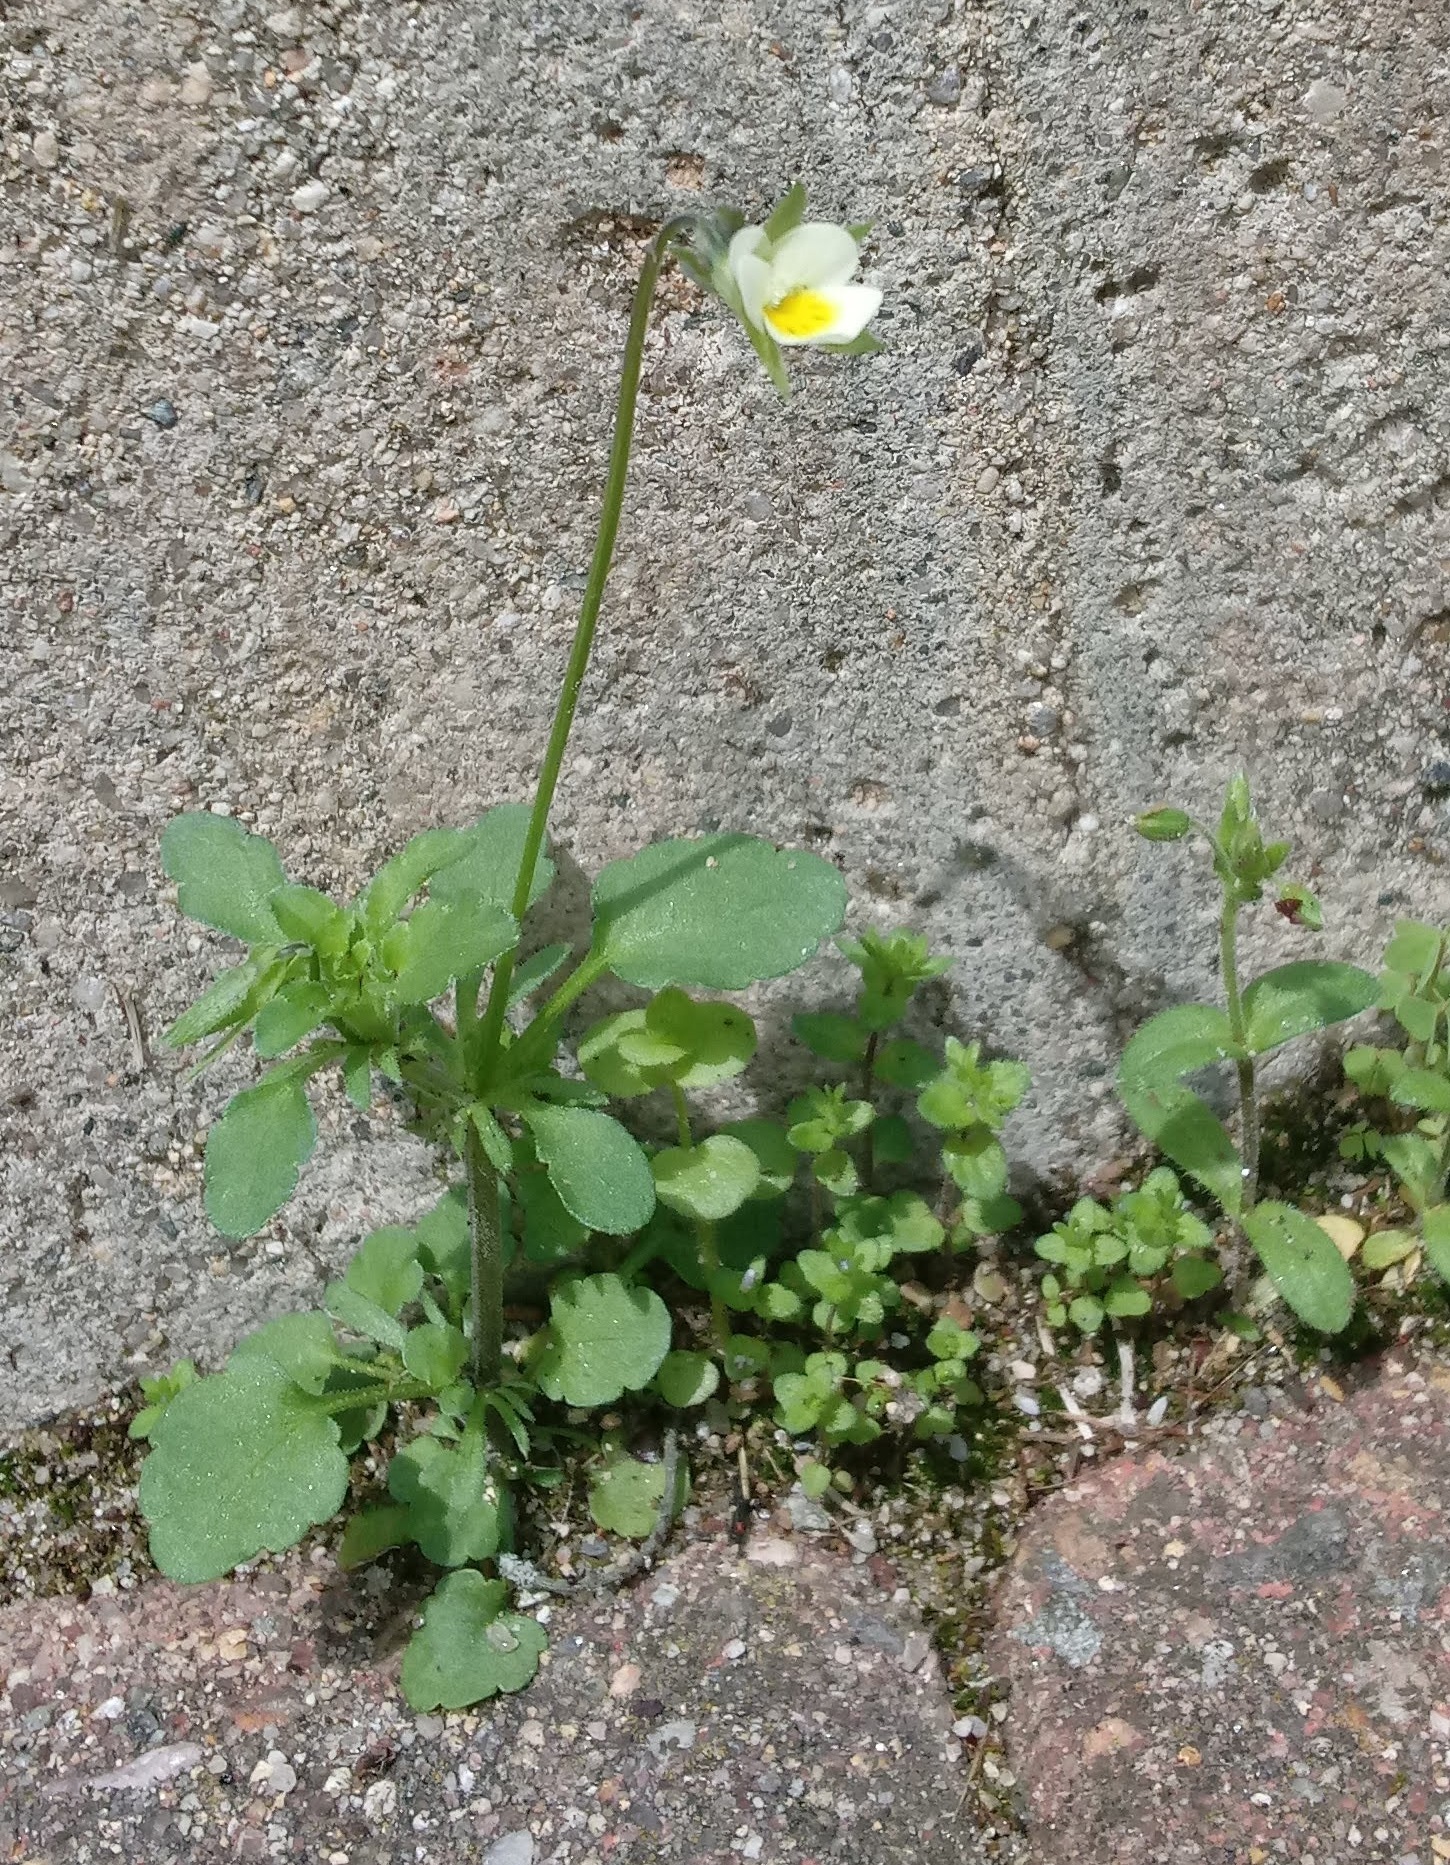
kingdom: Plantae
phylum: Tracheophyta
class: Magnoliopsida
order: Malpighiales
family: Violaceae
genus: Viola
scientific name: Viola arvensis
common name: Field pansy
